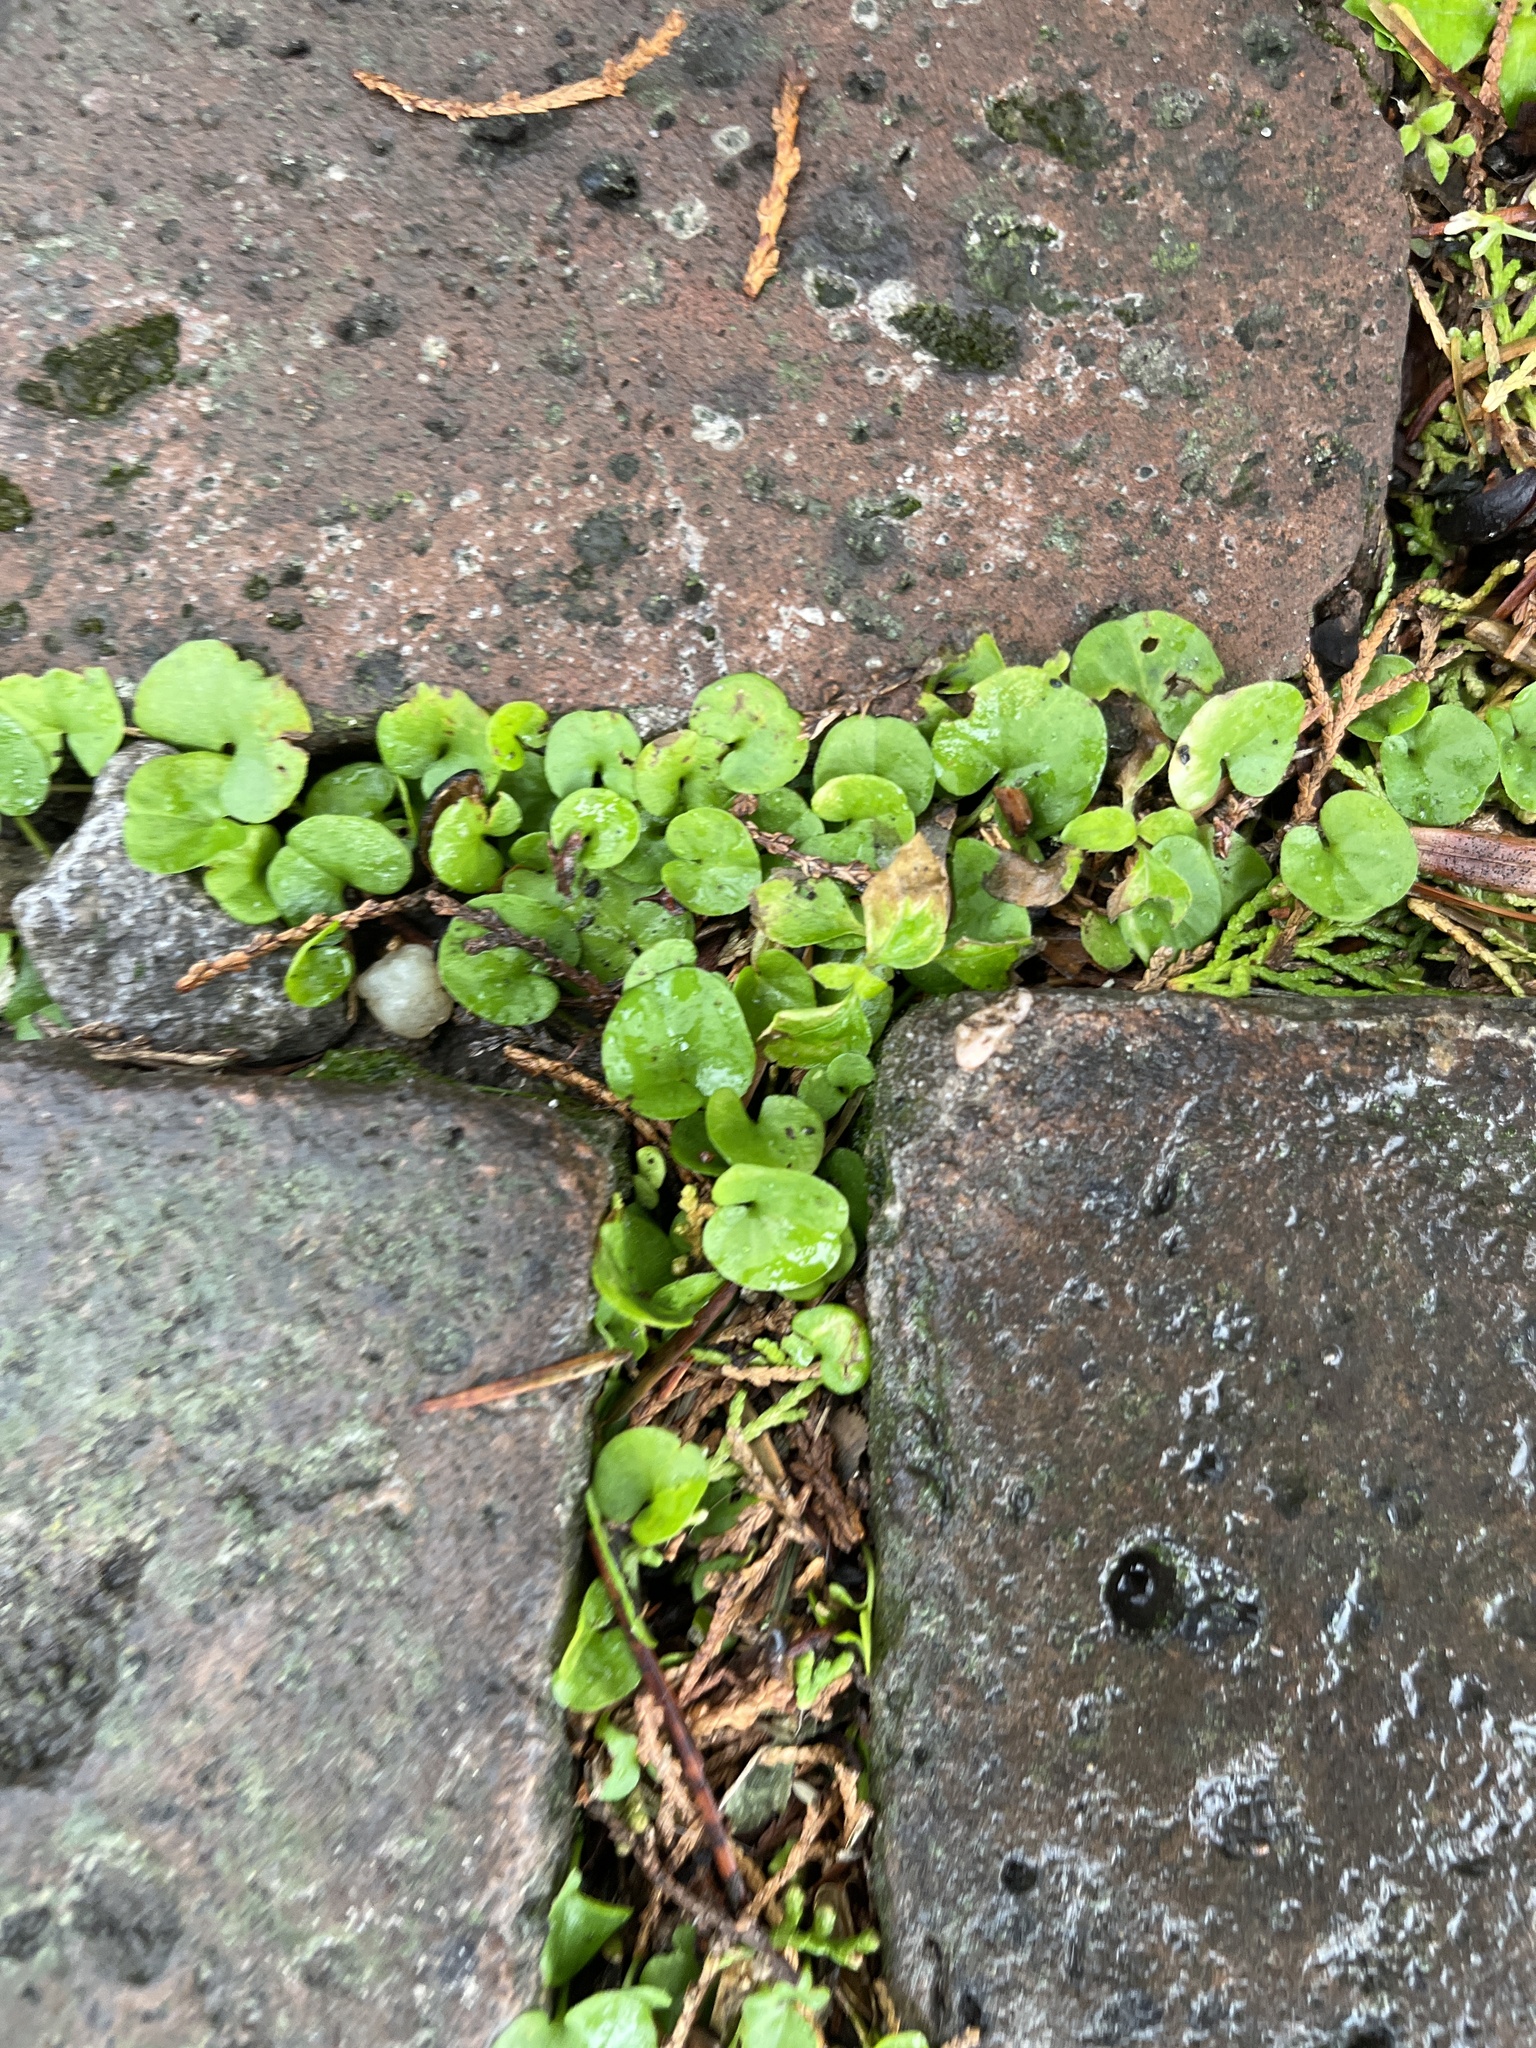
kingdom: Plantae
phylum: Tracheophyta
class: Magnoliopsida
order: Solanales
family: Convolvulaceae
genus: Dichondra
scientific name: Dichondra carolinensis
